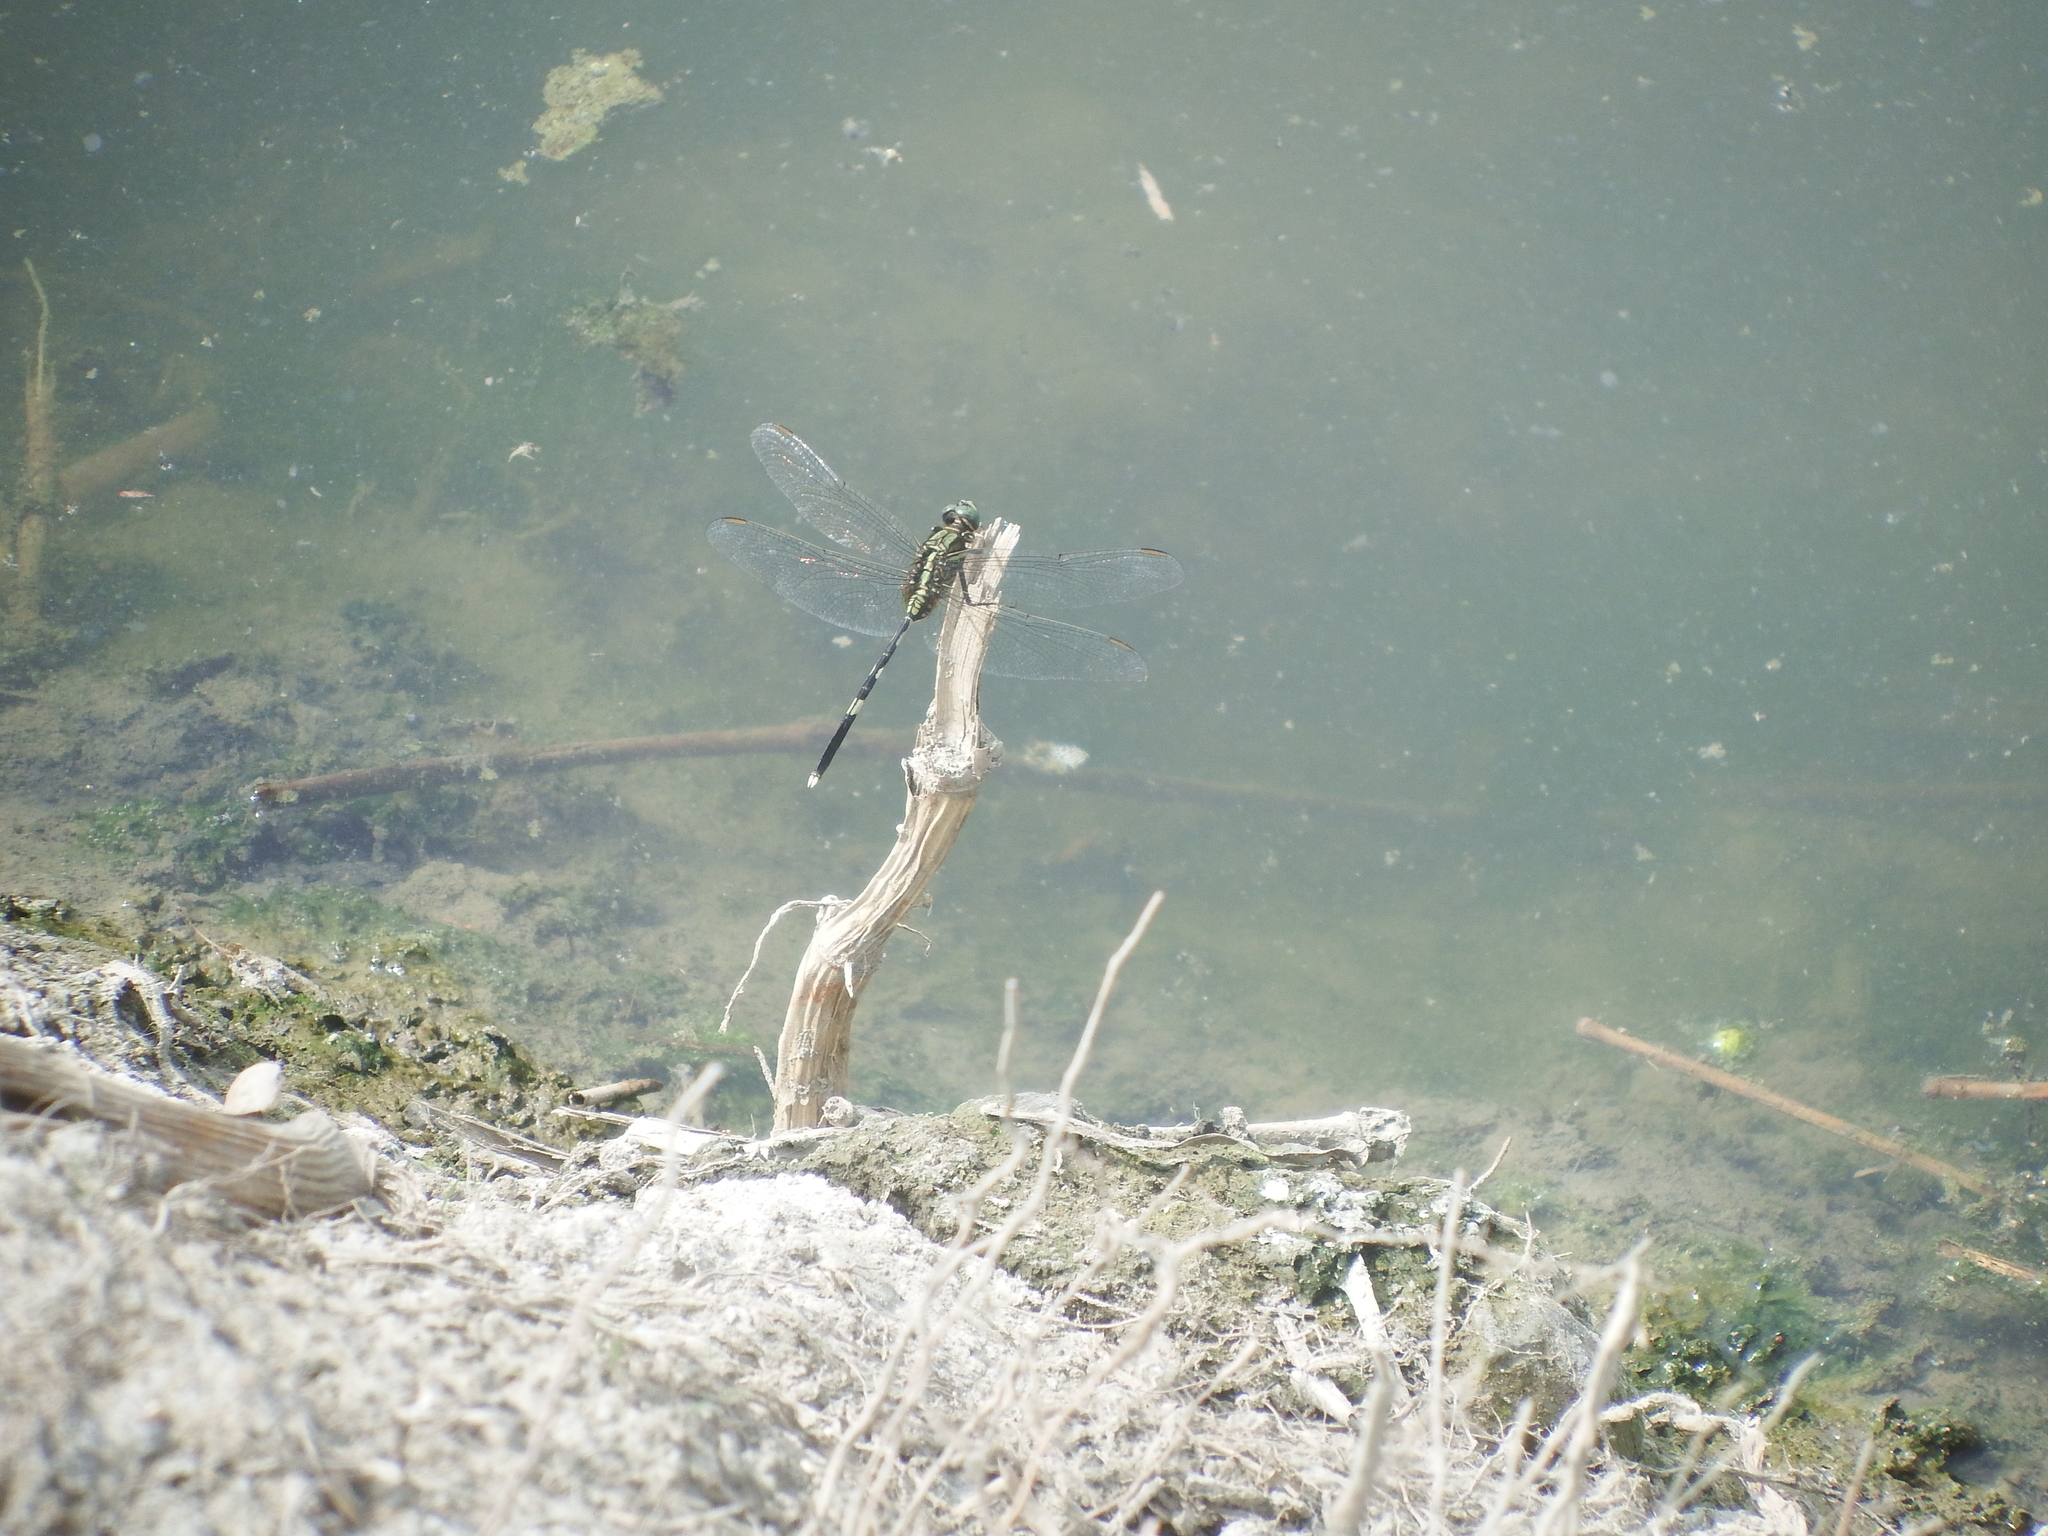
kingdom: Animalia
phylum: Arthropoda
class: Insecta
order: Odonata
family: Libellulidae
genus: Orthetrum
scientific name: Orthetrum sabina
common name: Slender skimmer
